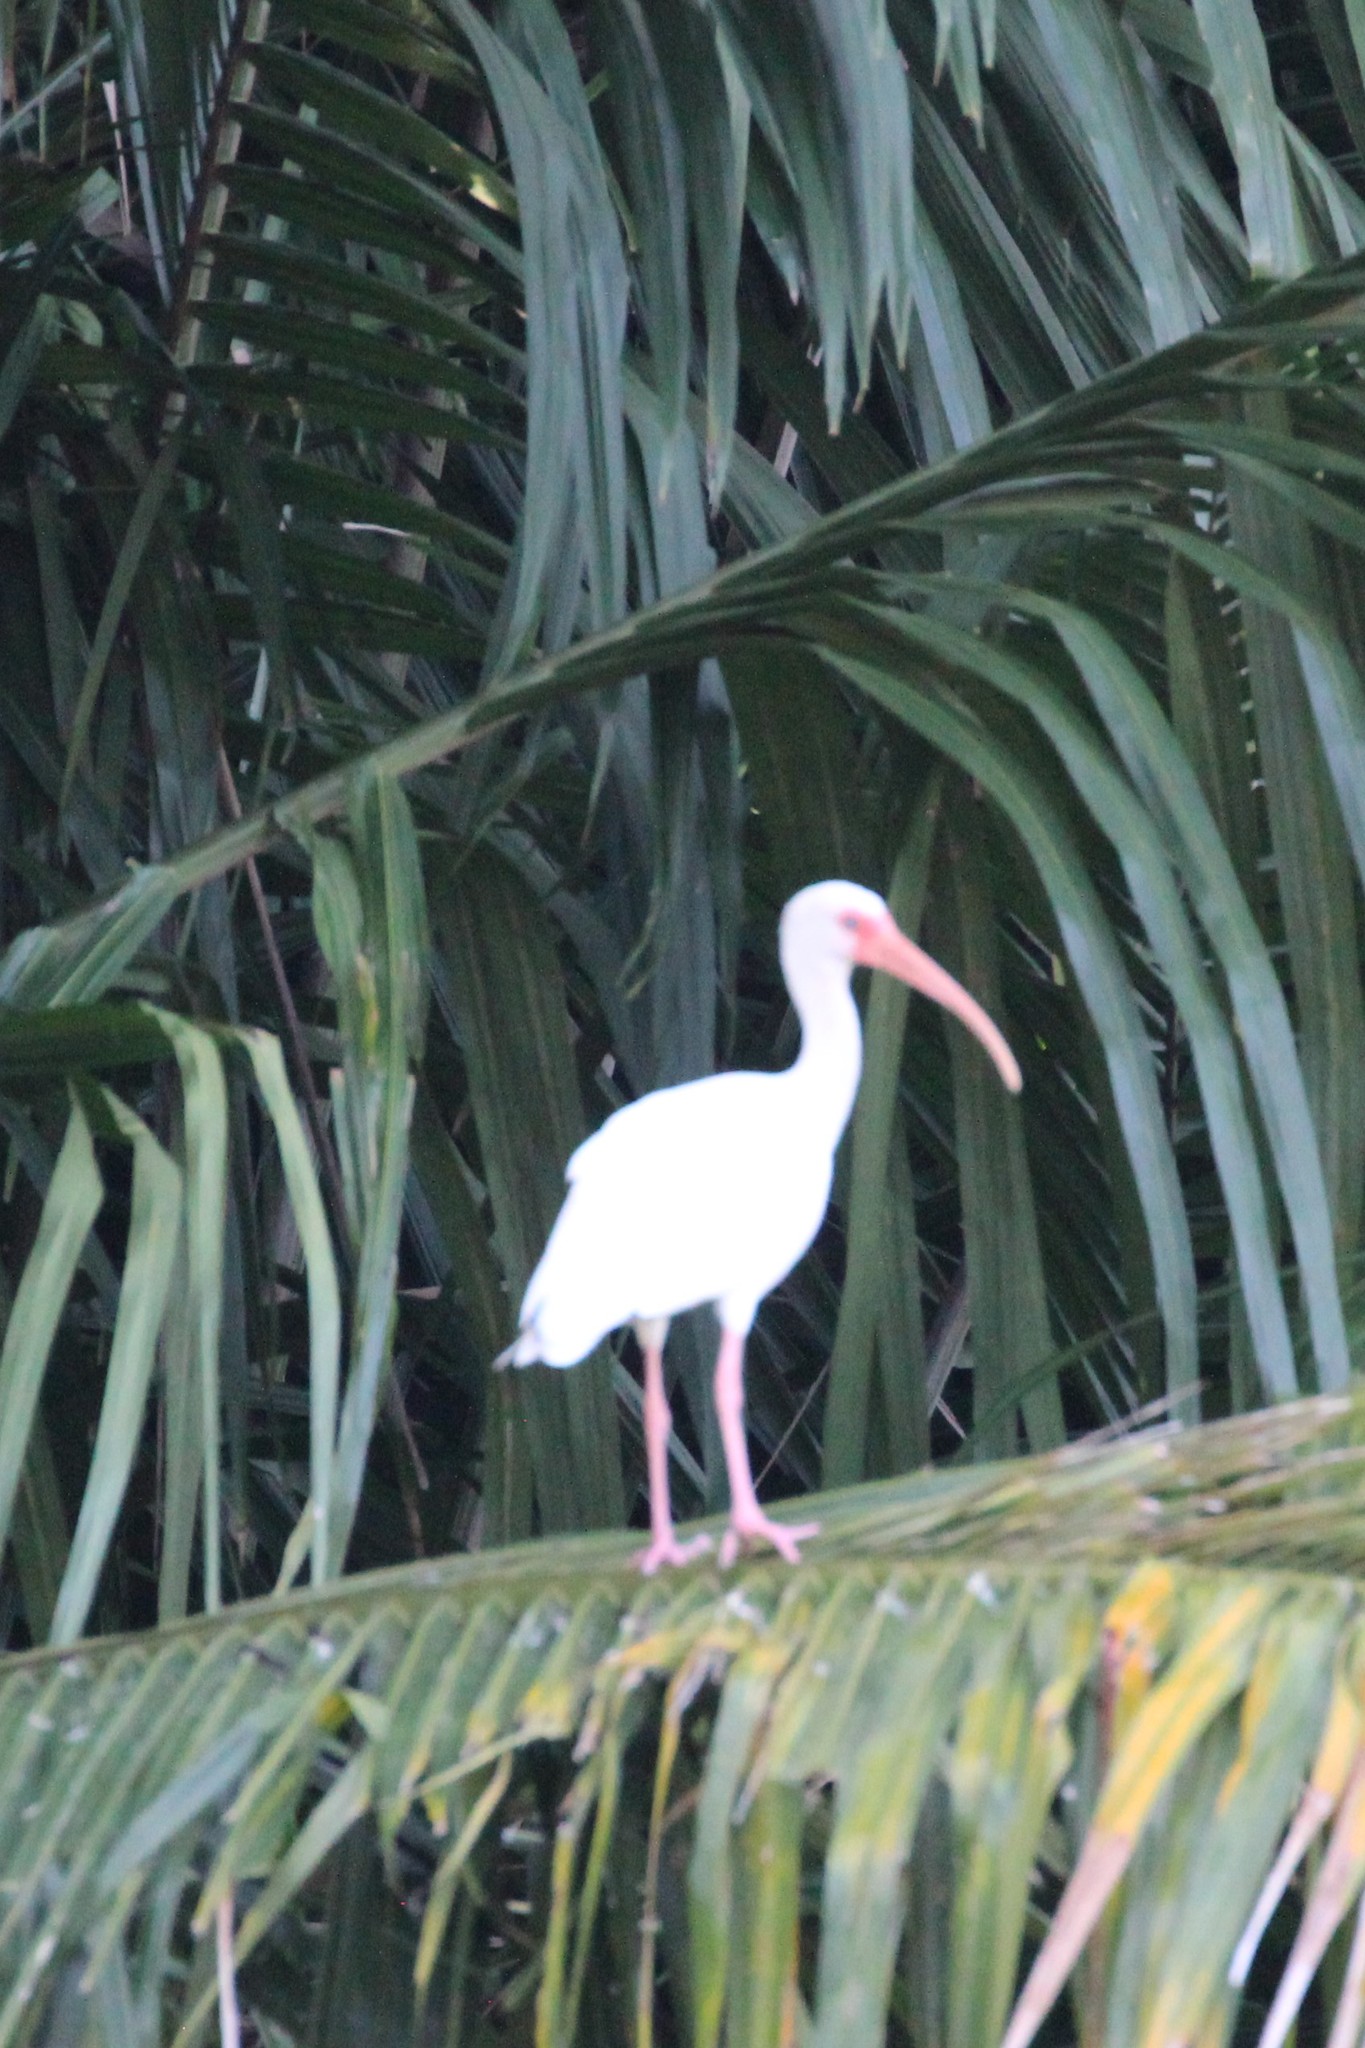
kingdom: Animalia
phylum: Chordata
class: Aves
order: Pelecaniformes
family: Threskiornithidae
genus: Eudocimus
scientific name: Eudocimus albus
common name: White ibis
